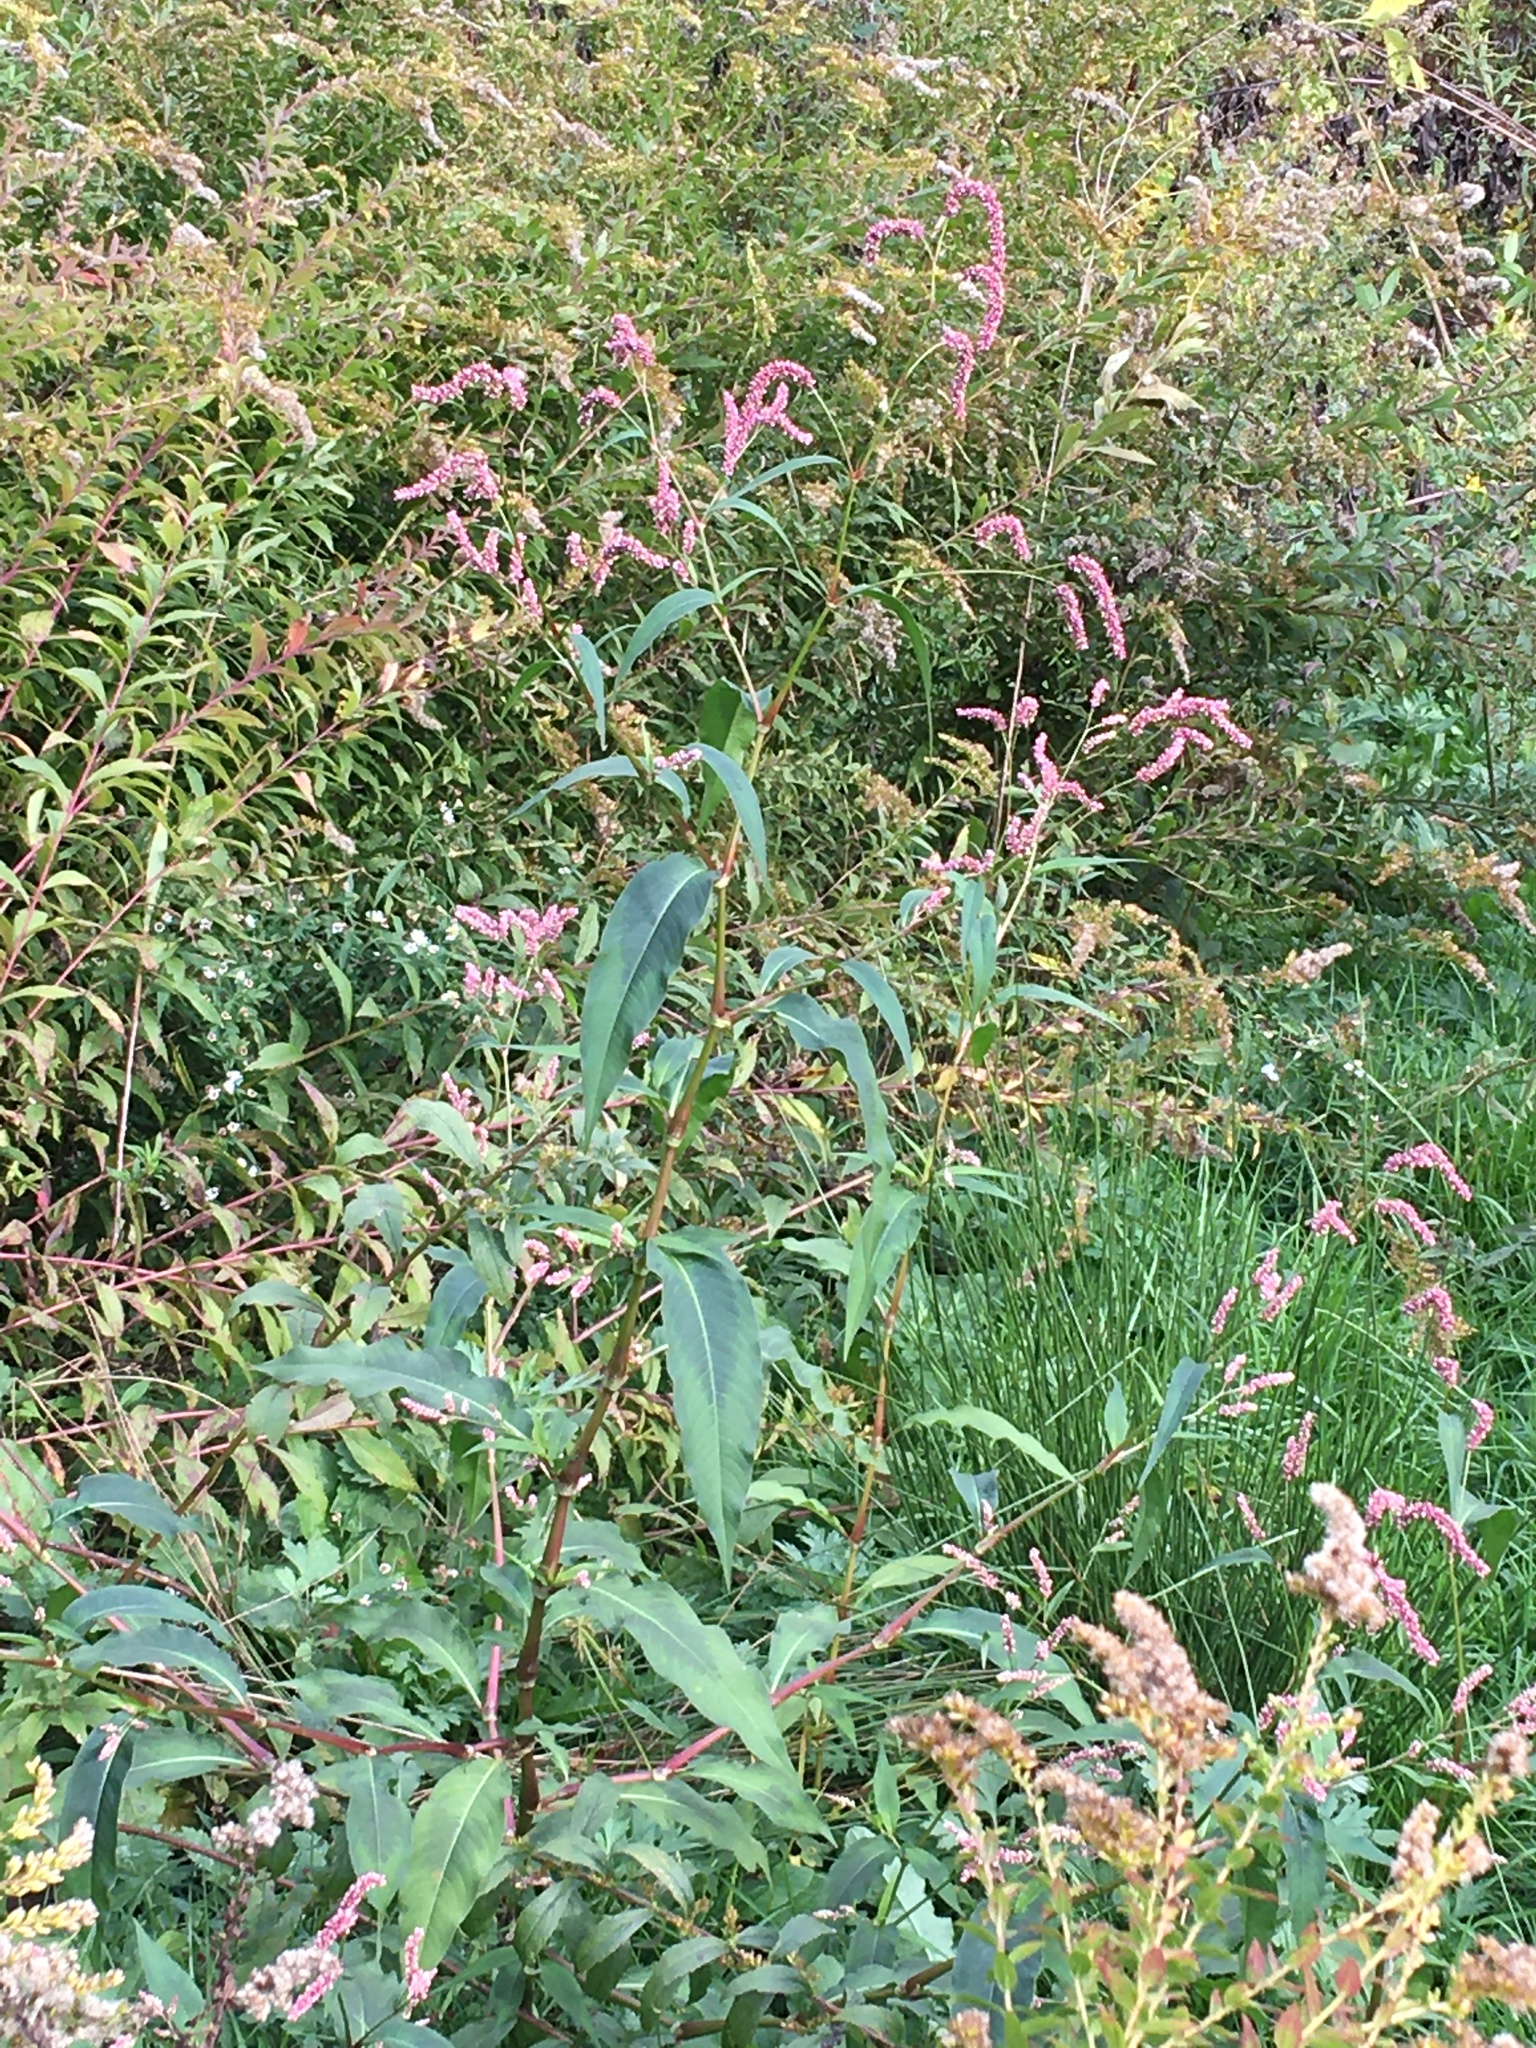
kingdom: Plantae
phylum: Tracheophyta
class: Magnoliopsida
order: Caryophyllales
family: Polygonaceae
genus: Persicaria
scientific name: Persicaria extremiorientalis
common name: Far-eastern smartweed
